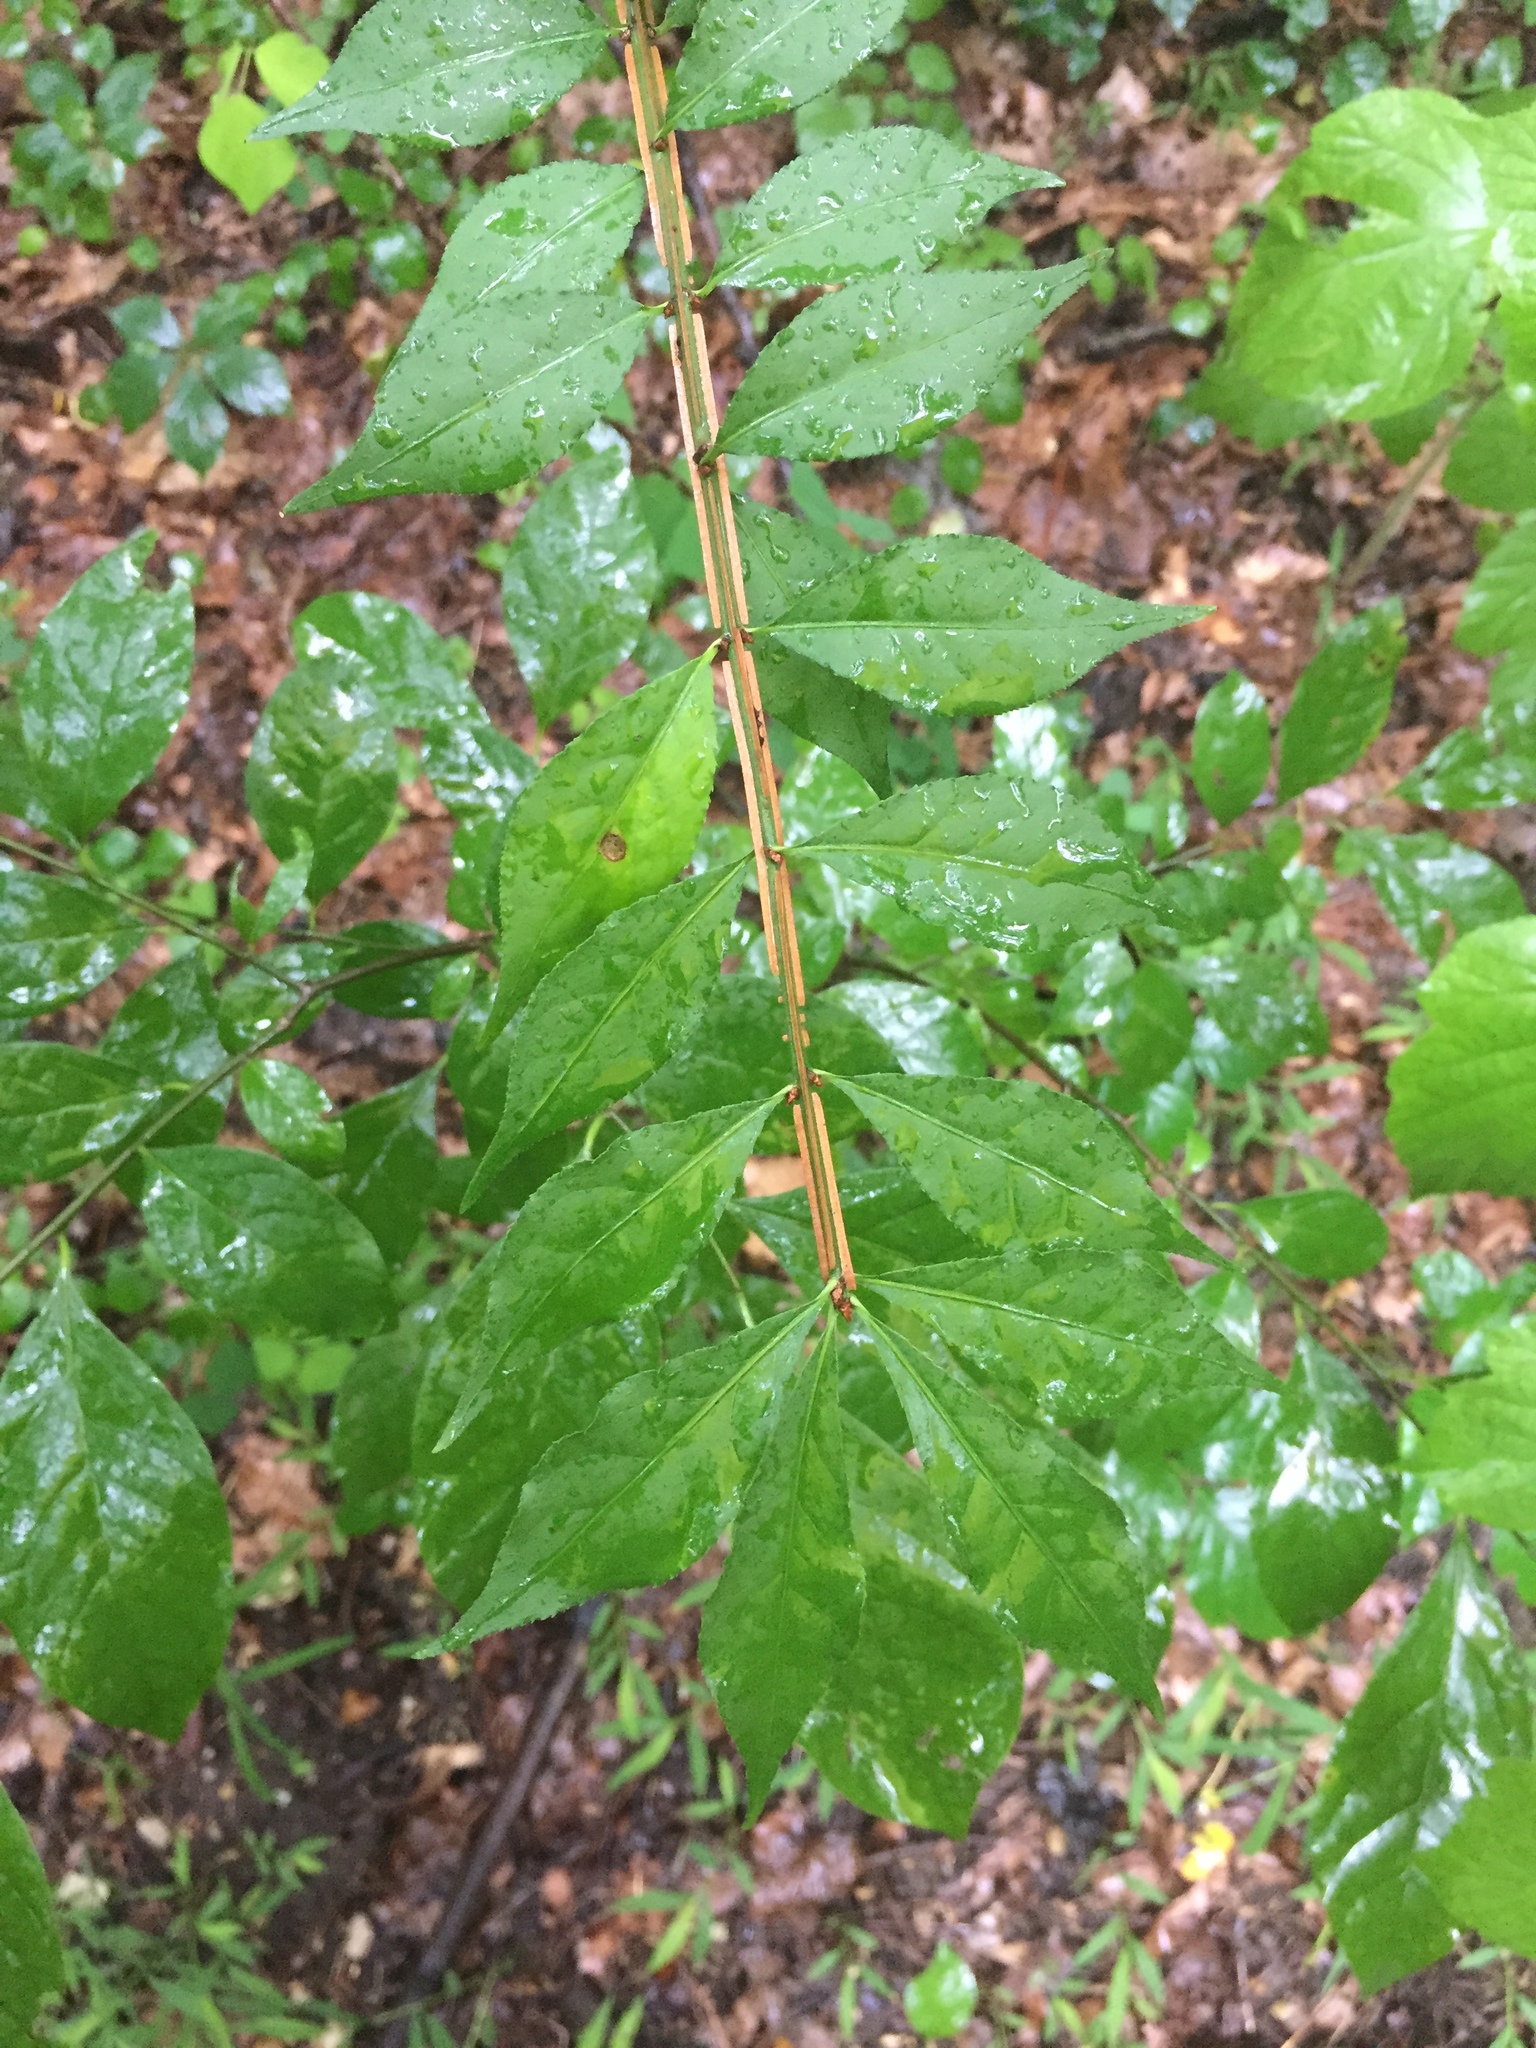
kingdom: Plantae
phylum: Tracheophyta
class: Magnoliopsida
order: Celastrales
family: Celastraceae
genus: Euonymus
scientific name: Euonymus alatus
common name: Winged euonymus
